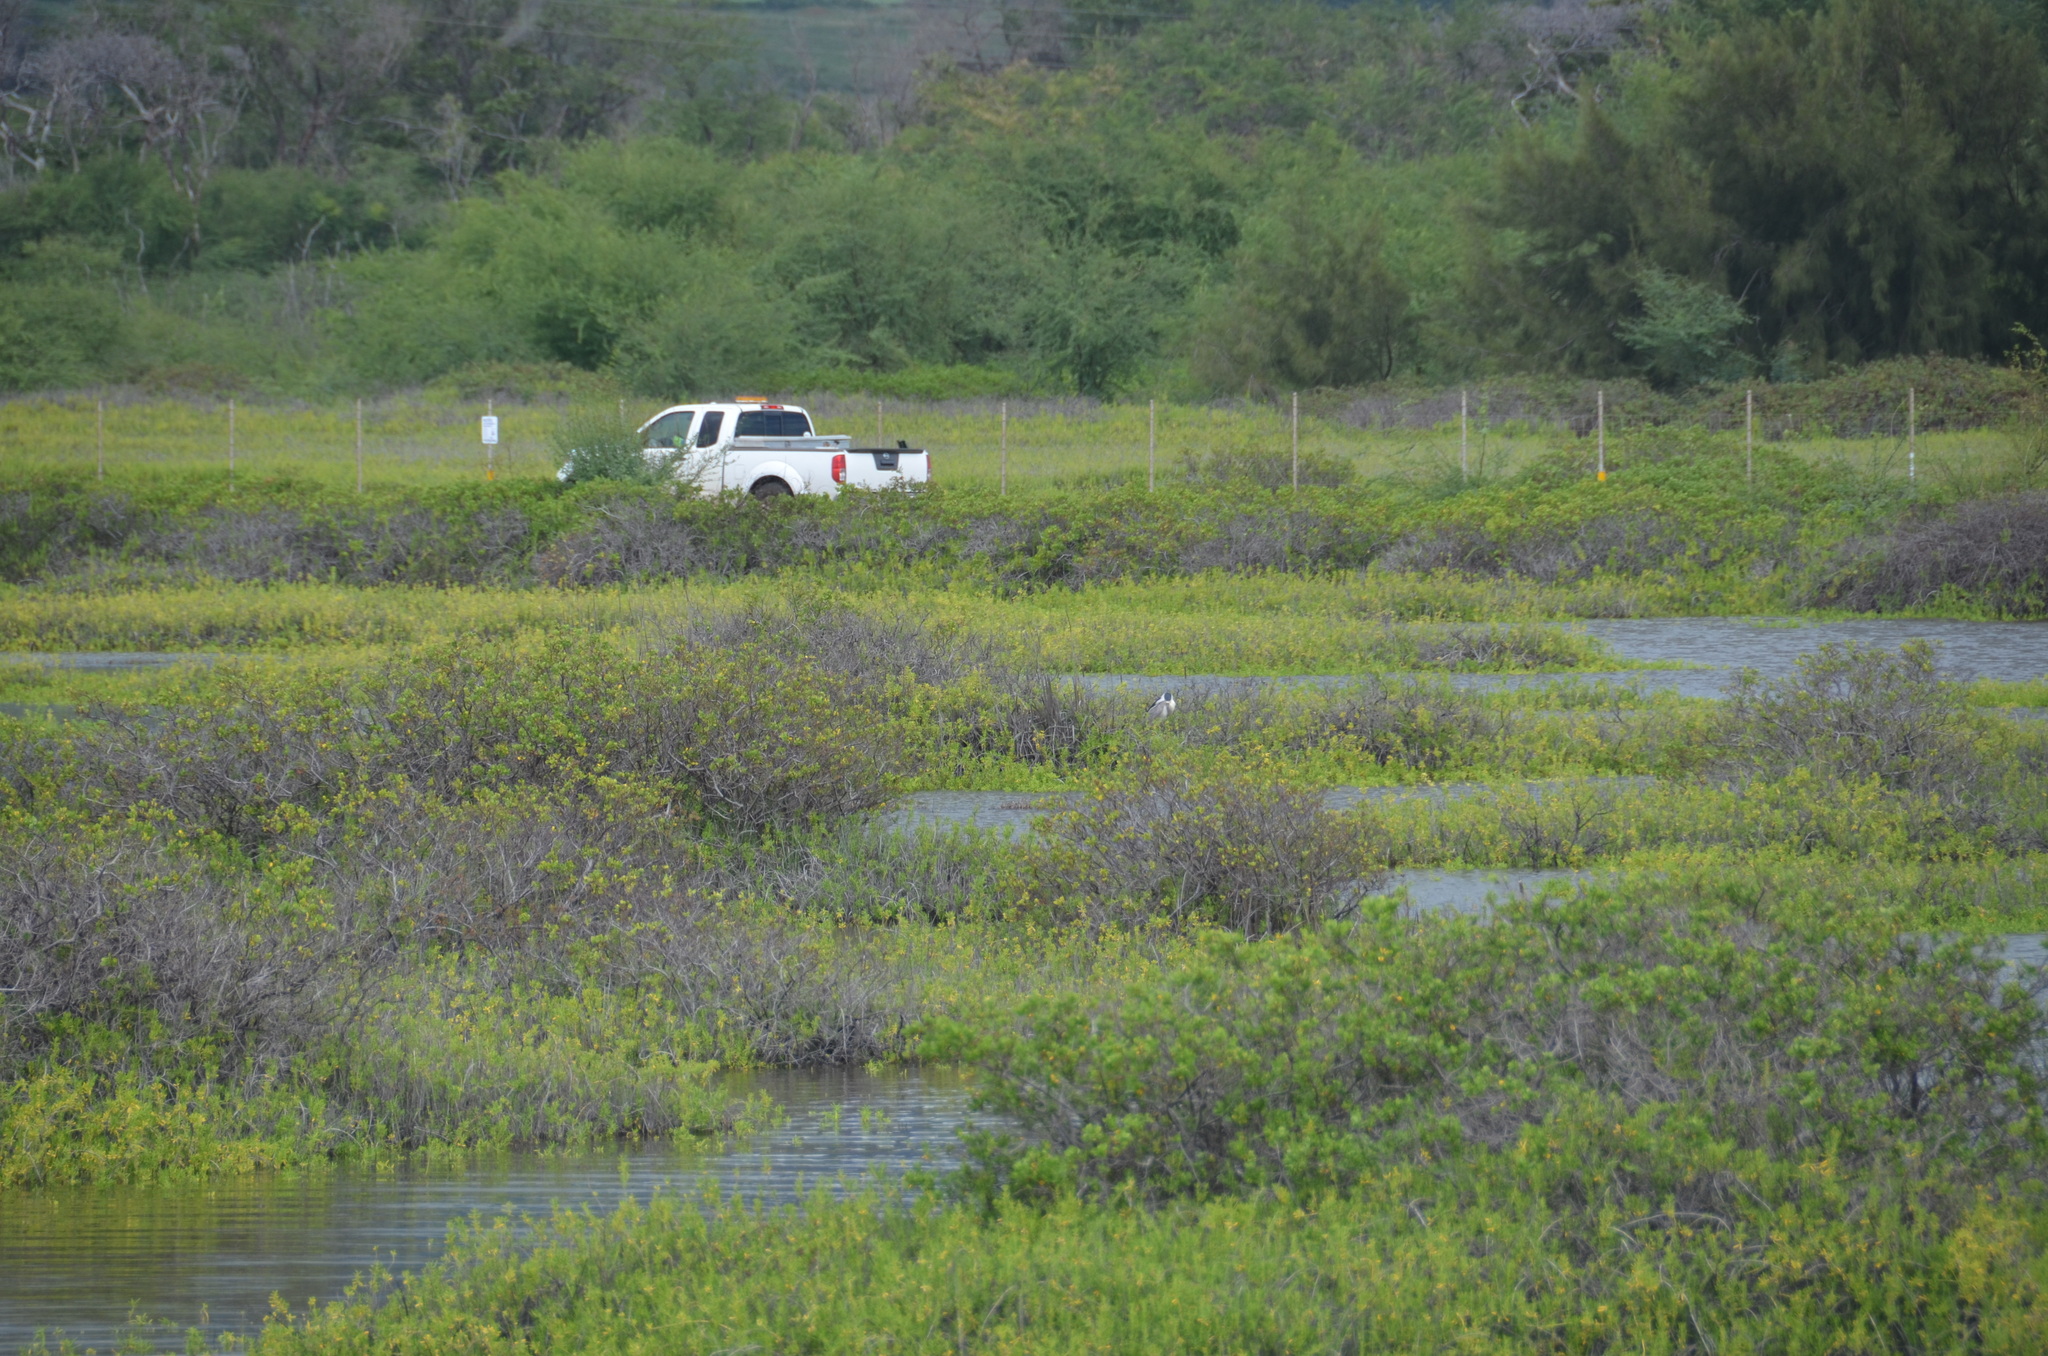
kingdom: Animalia
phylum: Chordata
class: Aves
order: Pelecaniformes
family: Ardeidae
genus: Nycticorax
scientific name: Nycticorax nycticorax
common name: Black-crowned night heron
